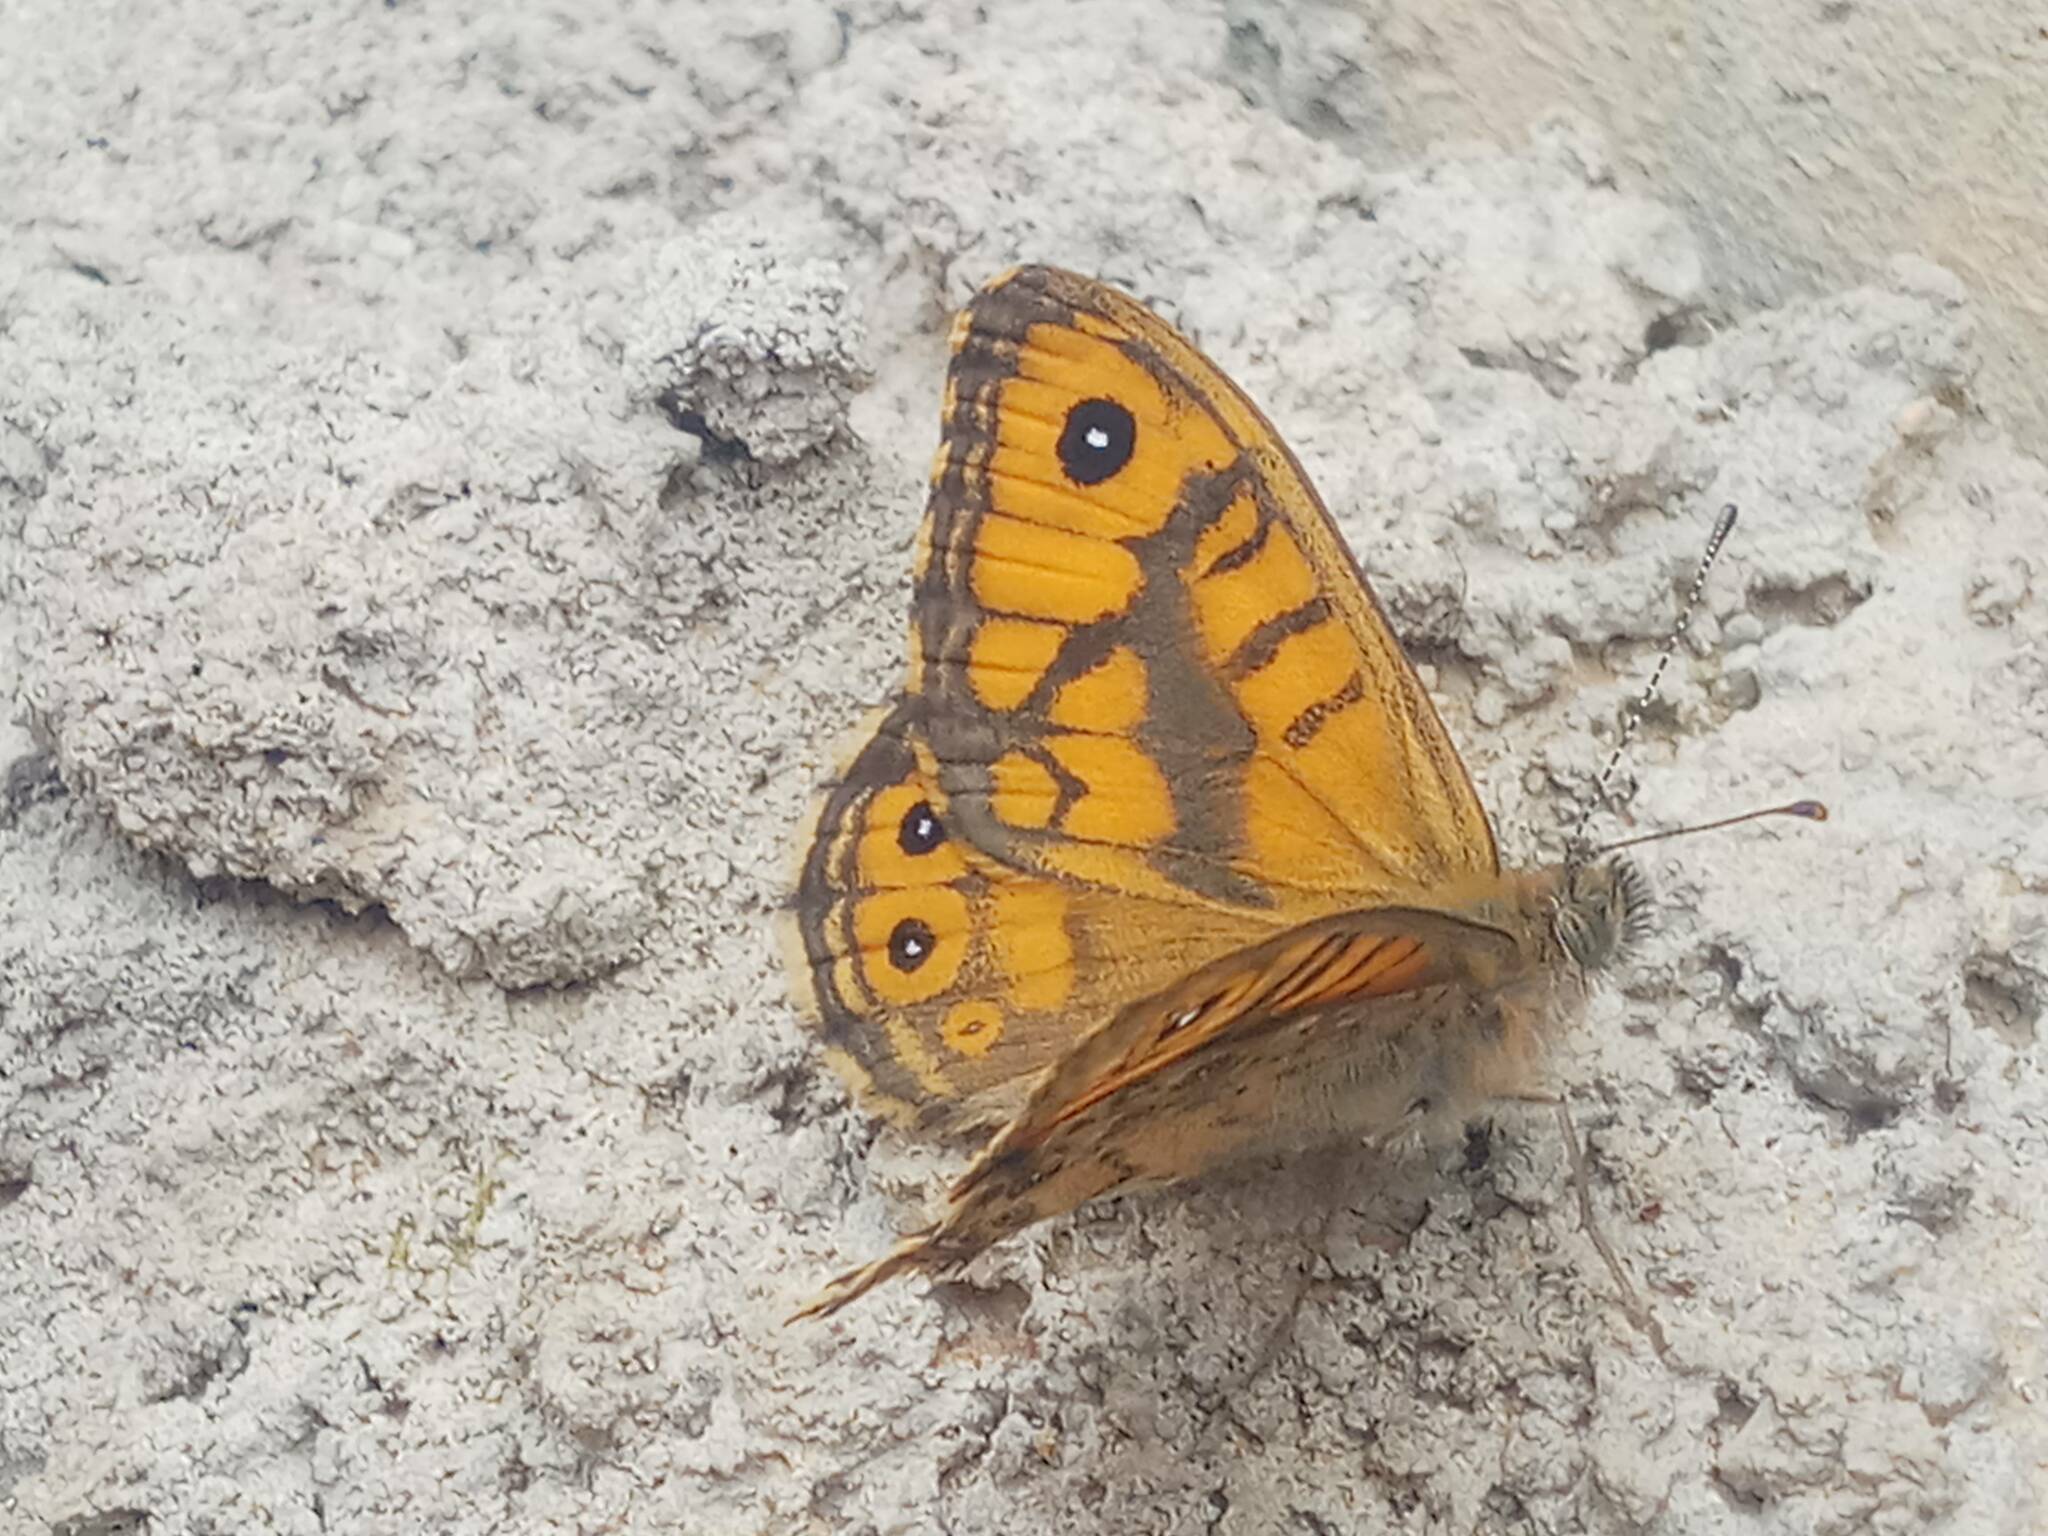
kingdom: Animalia
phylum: Arthropoda
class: Insecta
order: Lepidoptera
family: Nymphalidae
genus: Pararge
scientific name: Pararge Lasiommata megera
